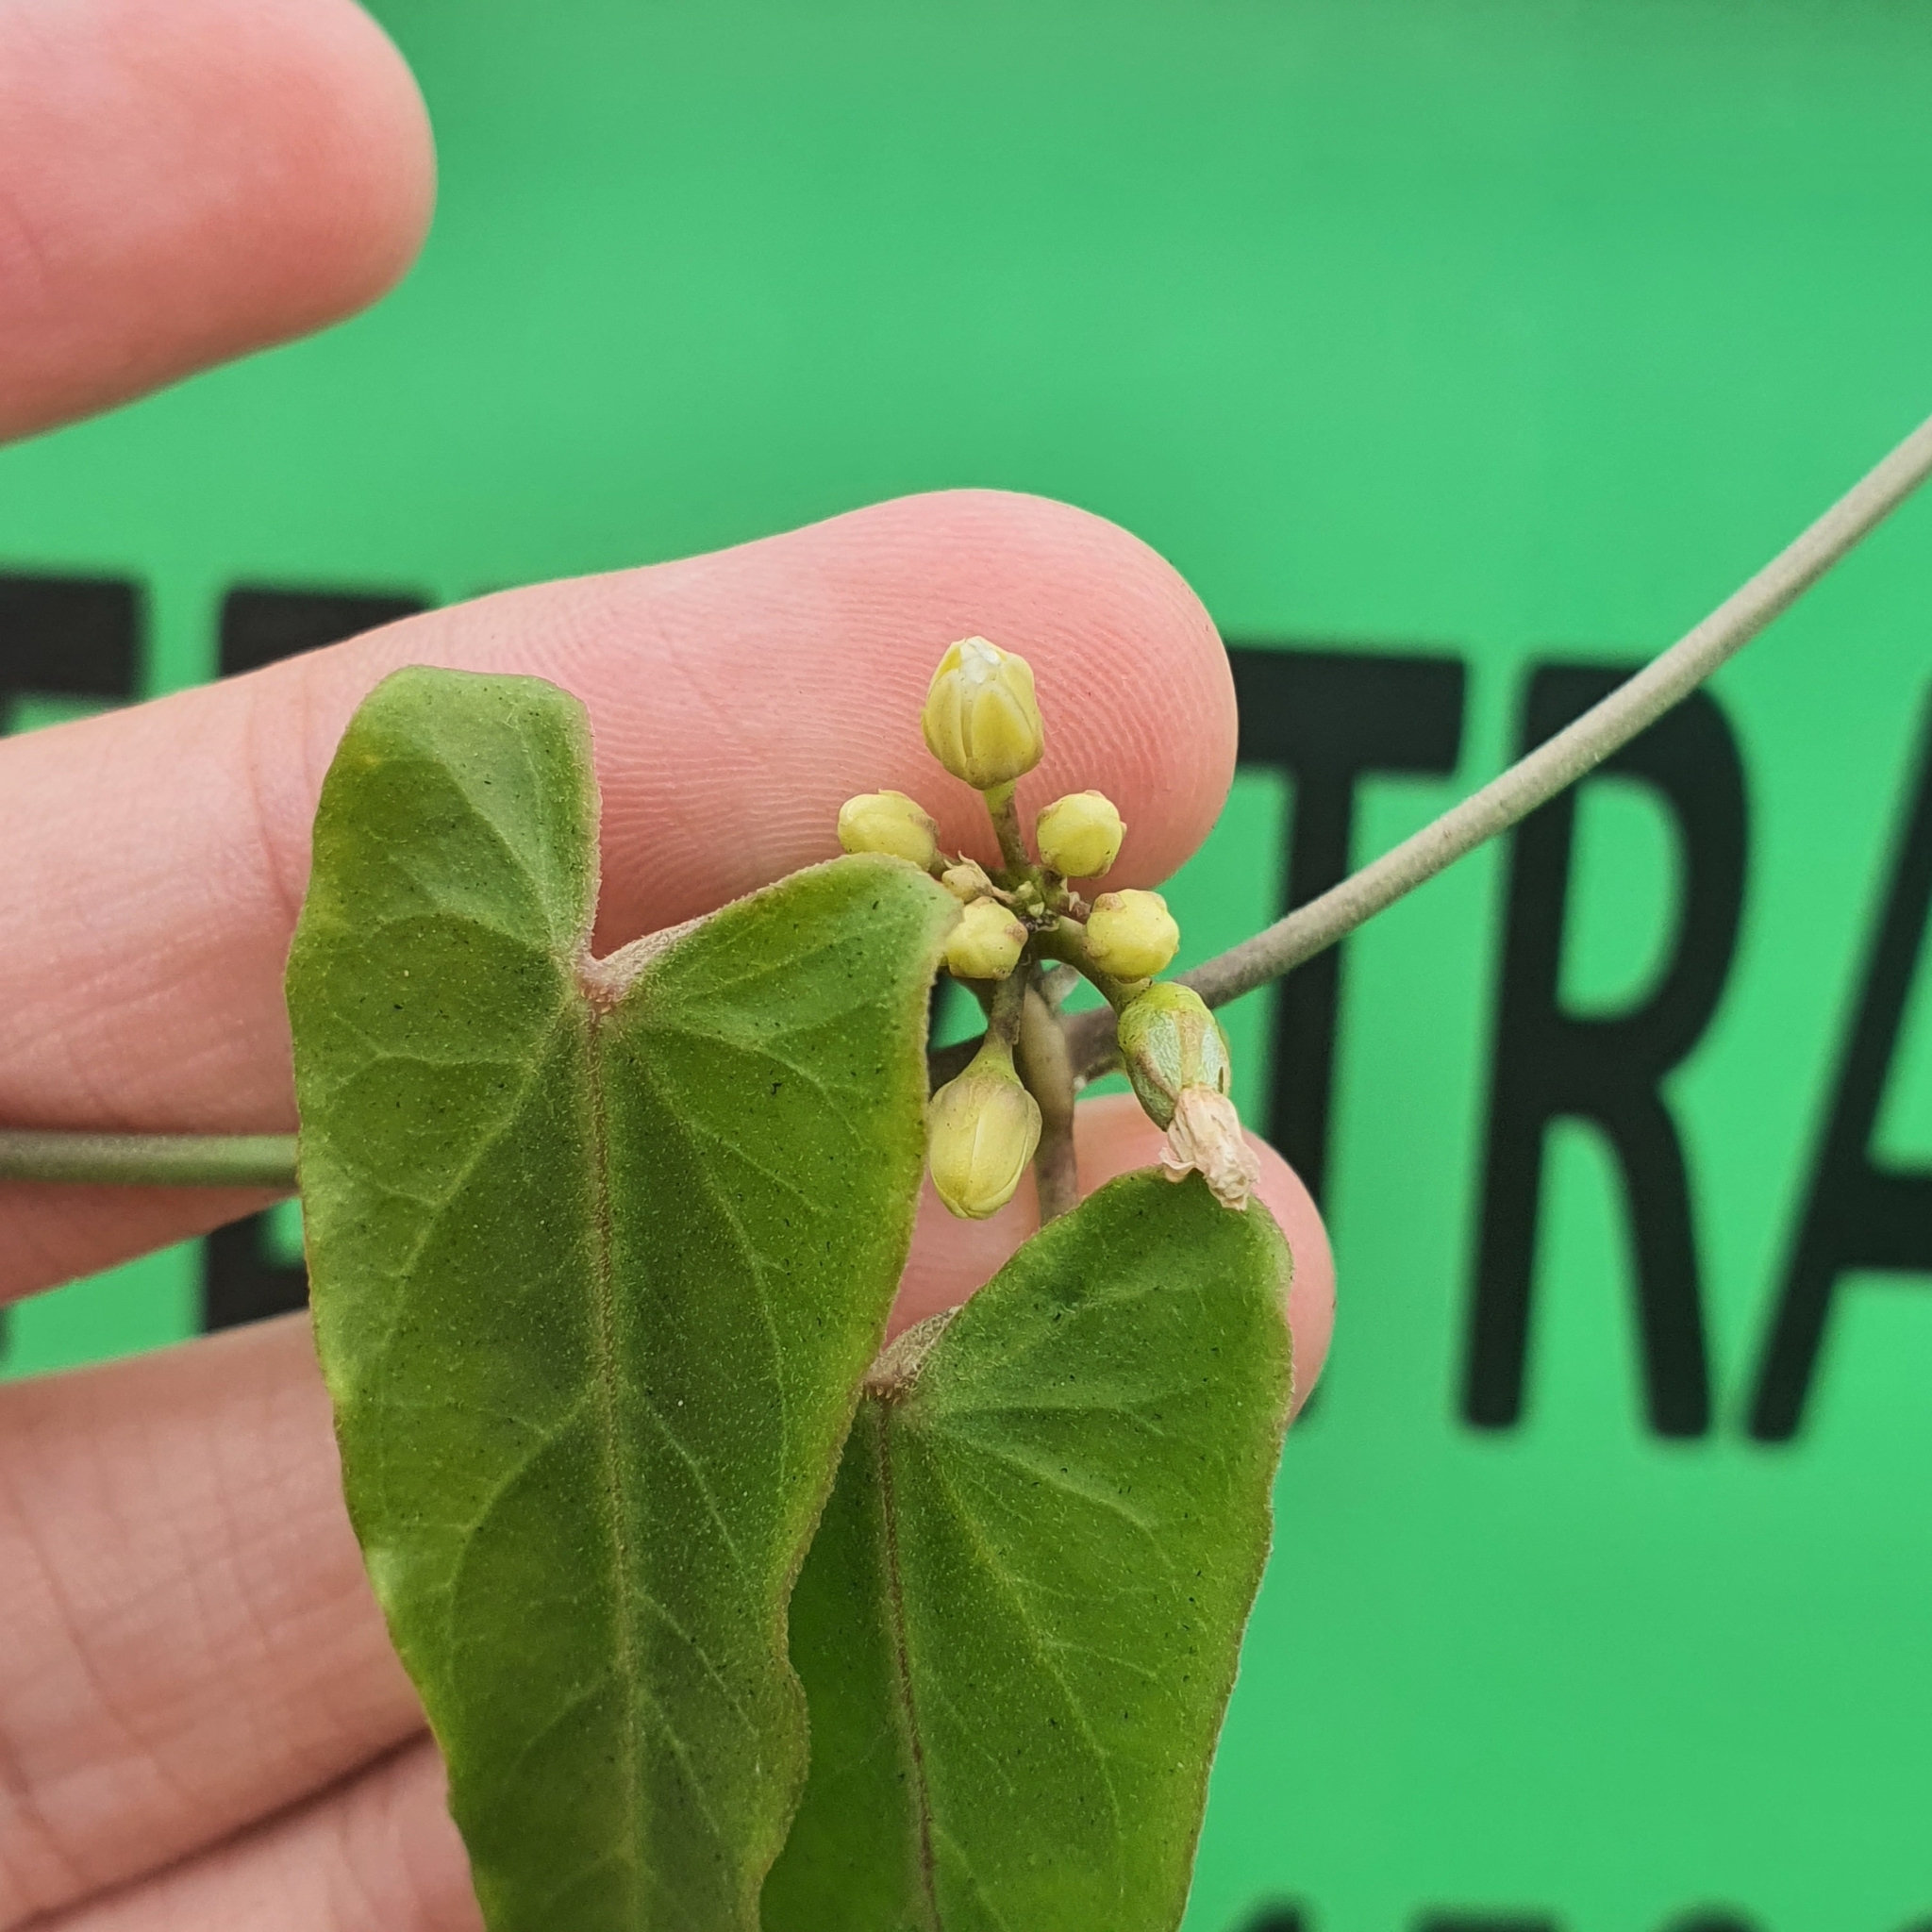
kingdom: Plantae
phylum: Tracheophyta
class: Magnoliopsida
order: Gentianales
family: Apocynaceae
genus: Cynanchum
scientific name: Cynanchum tunicatum
